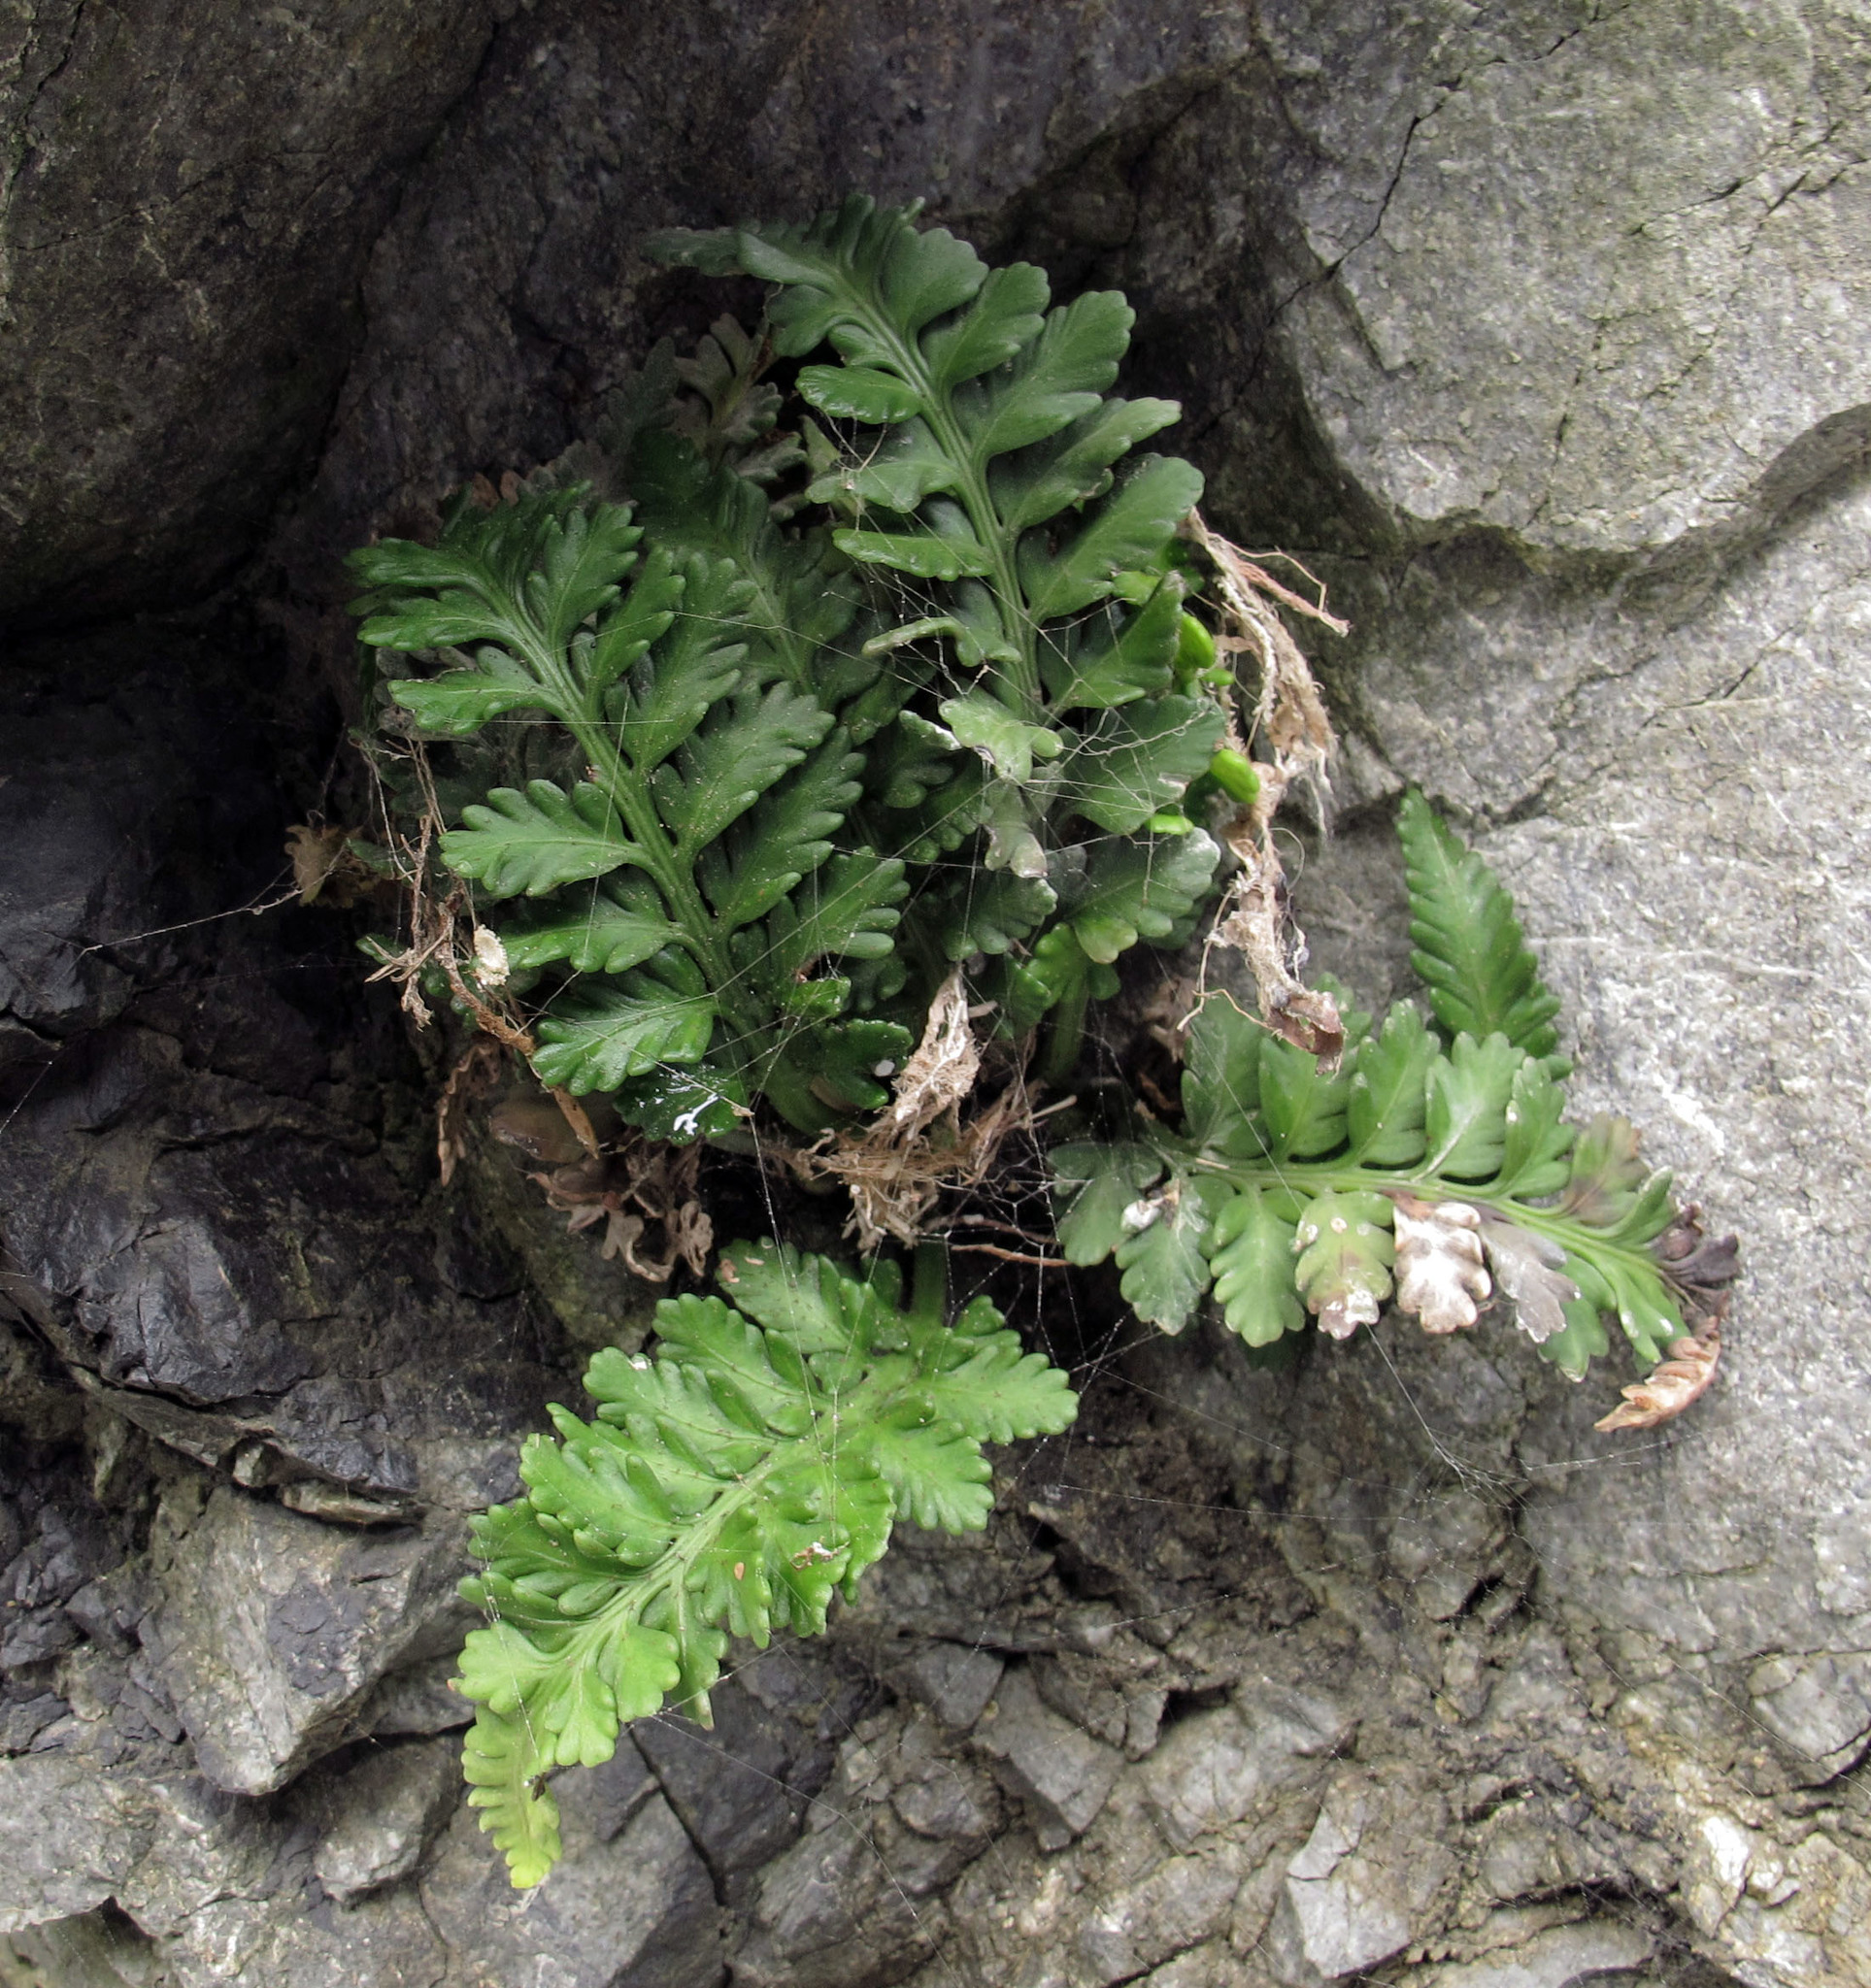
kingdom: Plantae
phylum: Tracheophyta
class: Polypodiopsida
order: Polypodiales
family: Aspleniaceae
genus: Asplenium
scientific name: Asplenium appendiculatum
